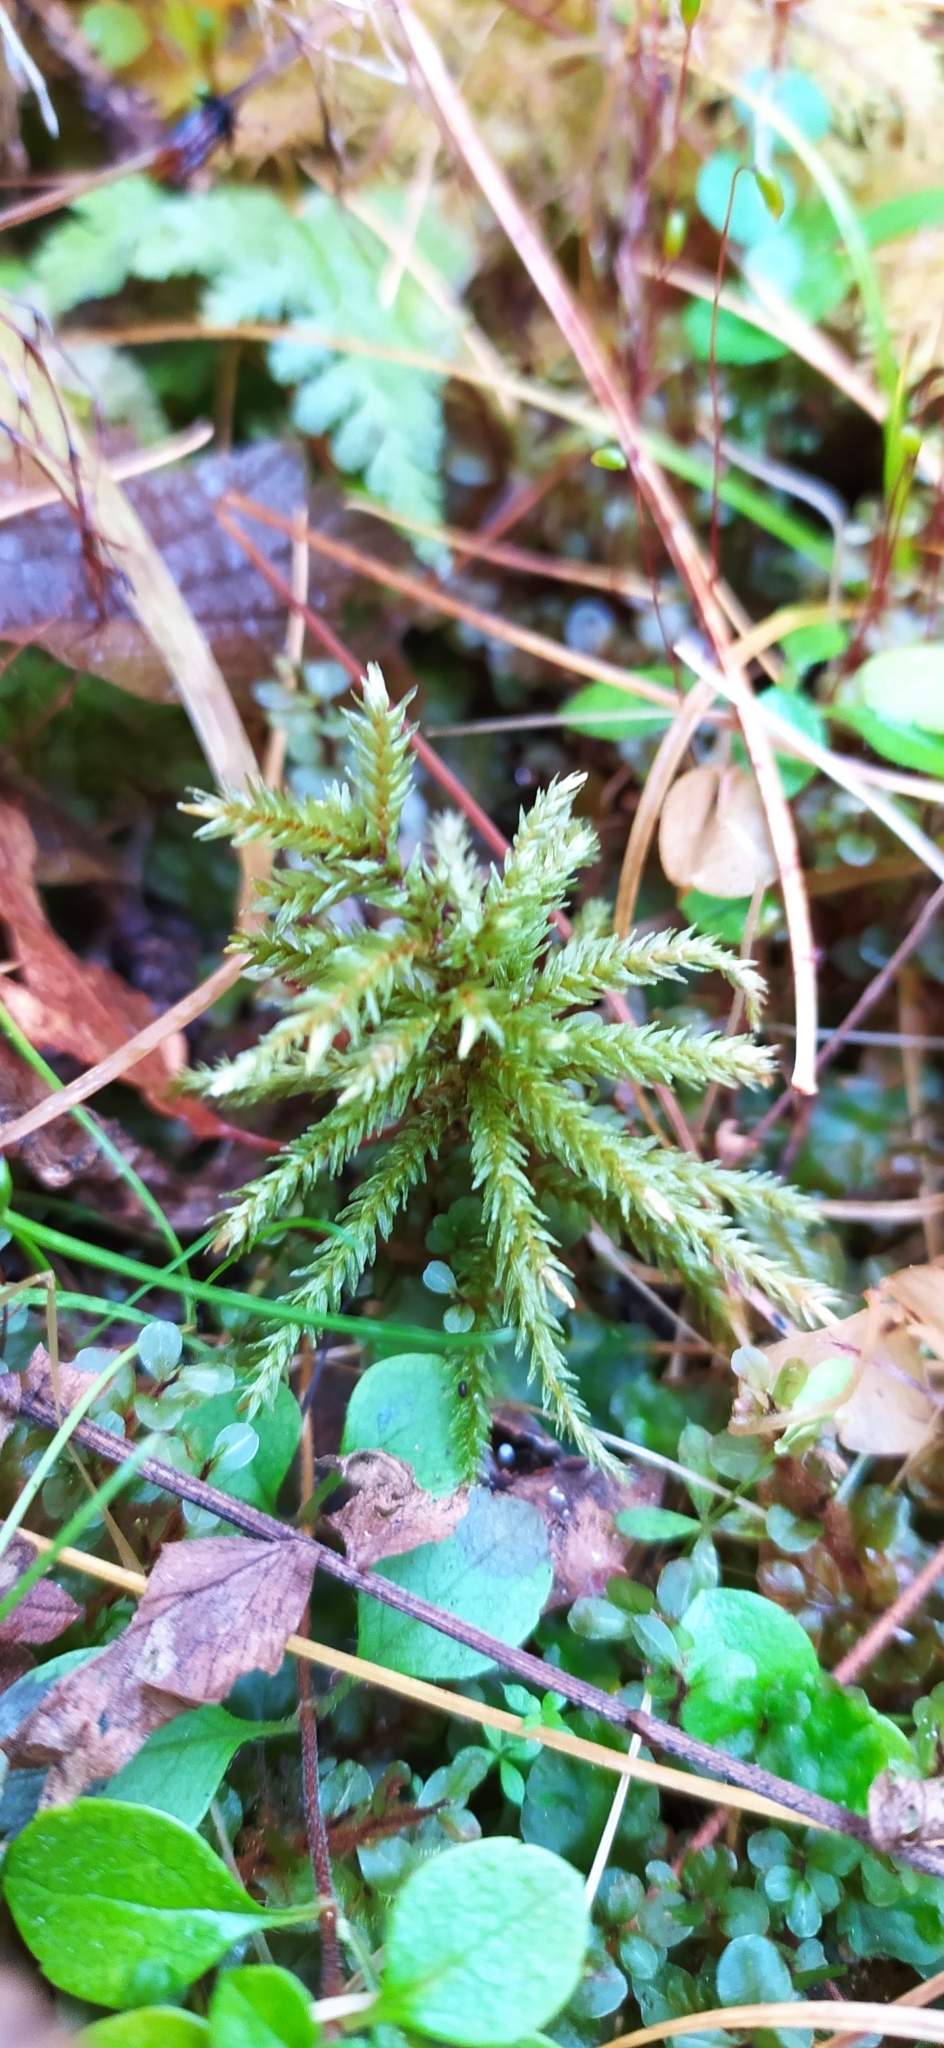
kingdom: Plantae
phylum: Bryophyta
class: Bryopsida
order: Hypnales
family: Climaciaceae
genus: Climacium
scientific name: Climacium dendroides
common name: Northern tree moss
